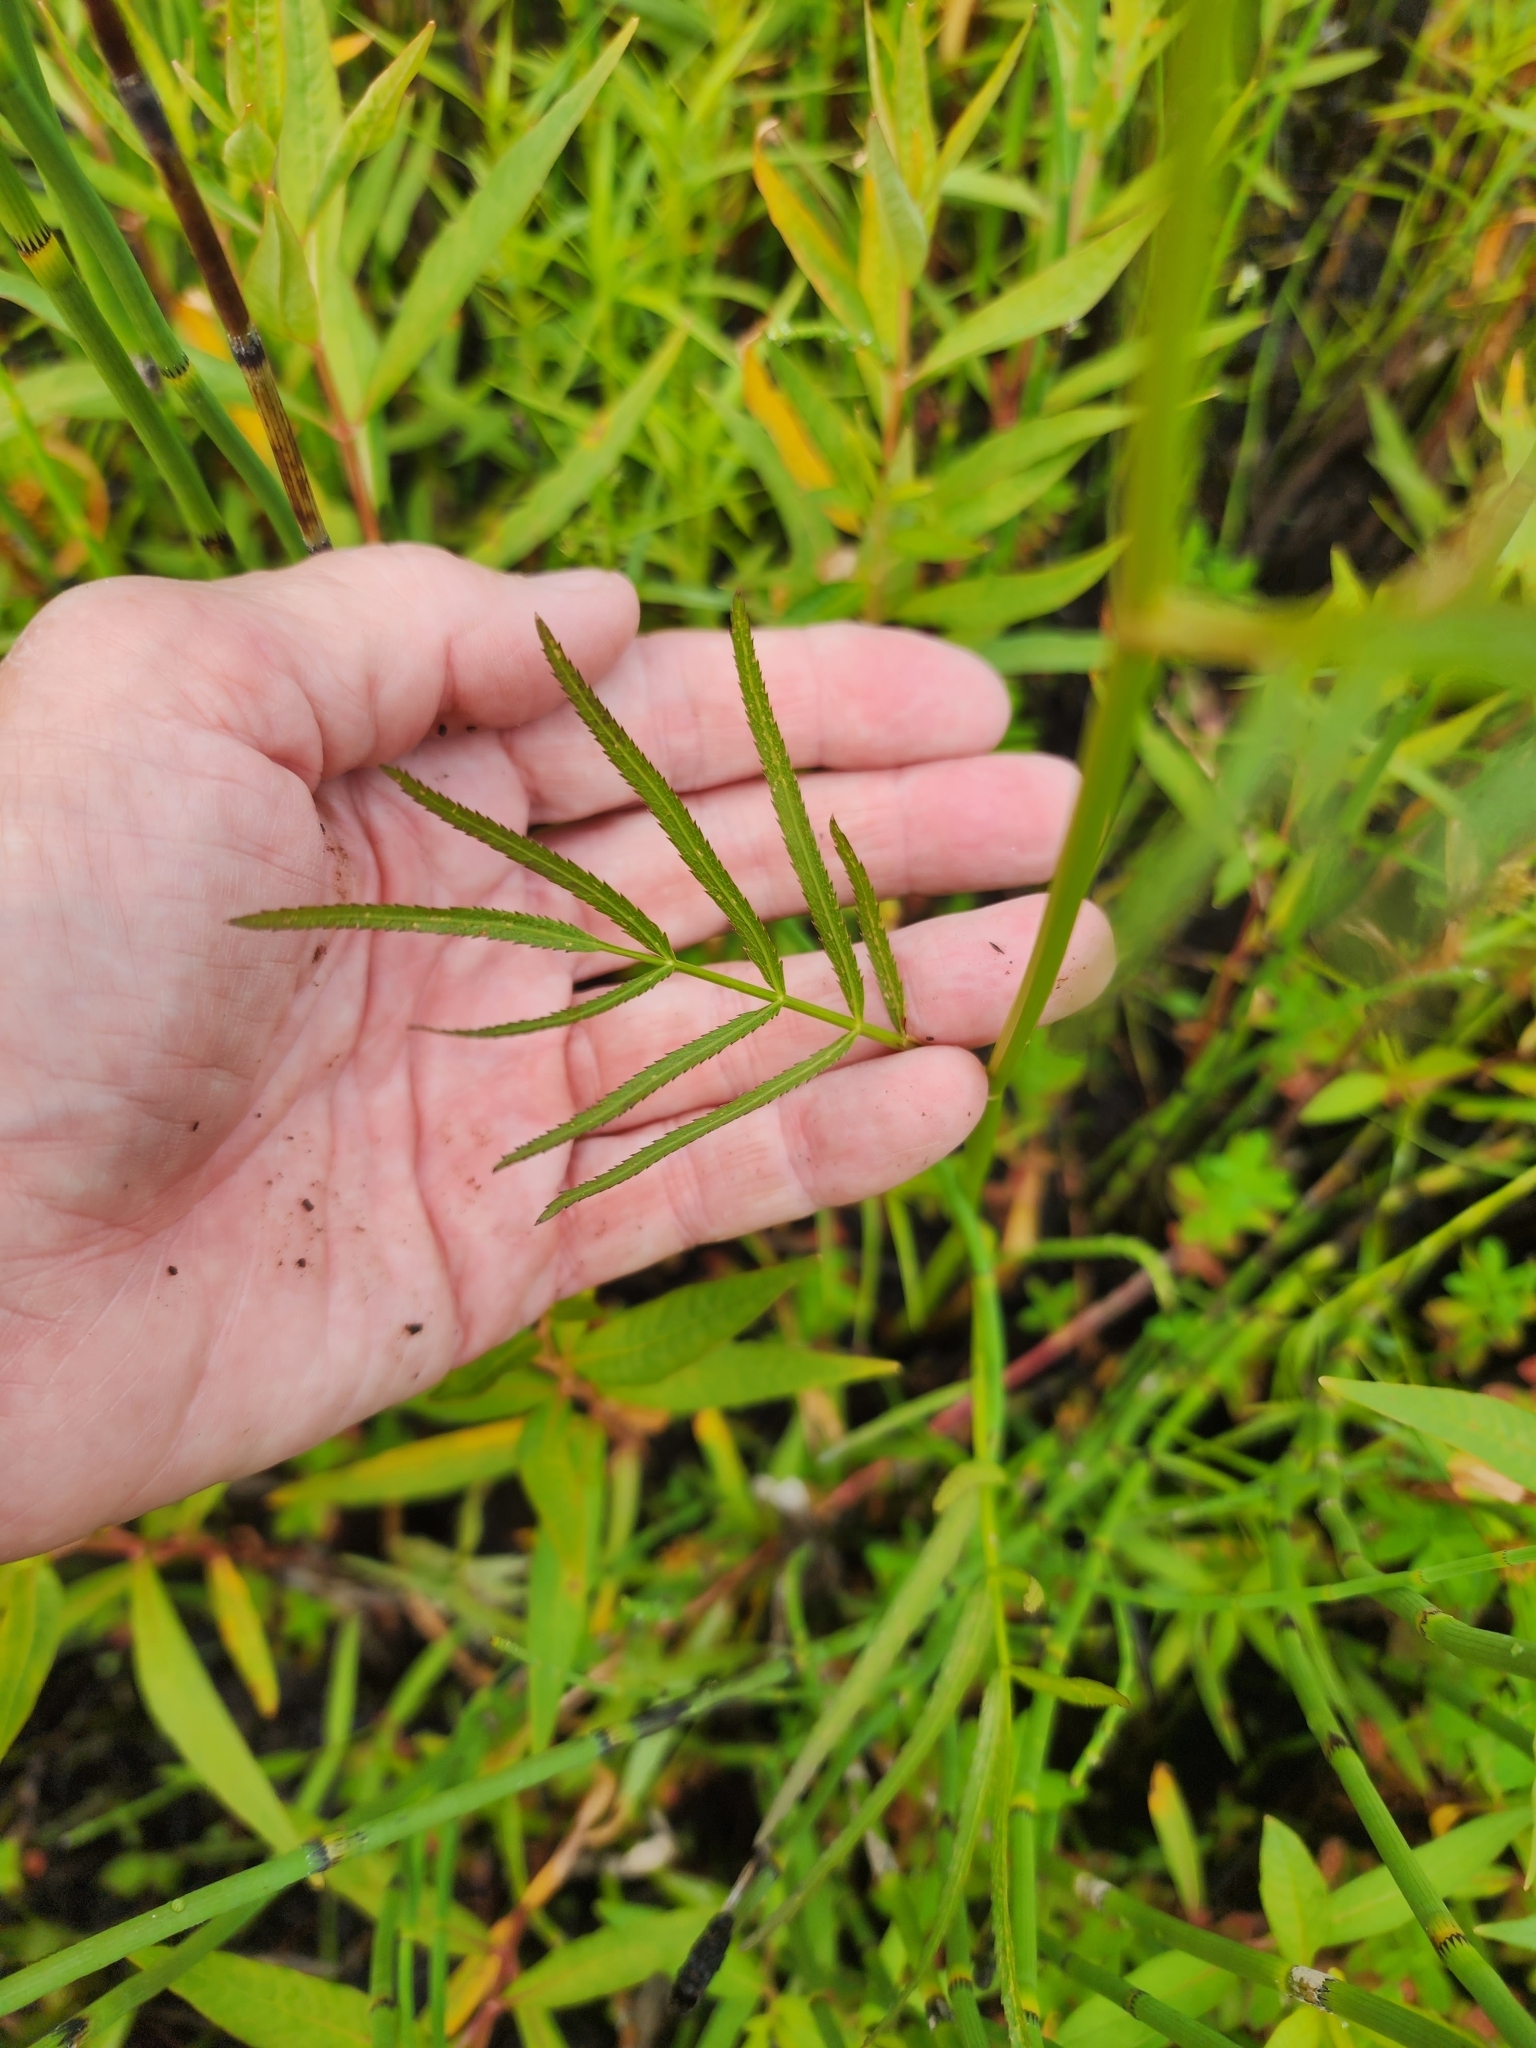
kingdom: Plantae
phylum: Tracheophyta
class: Magnoliopsida
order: Apiales
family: Apiaceae
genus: Sium
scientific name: Sium suave
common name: Hemlock water-parsnip
